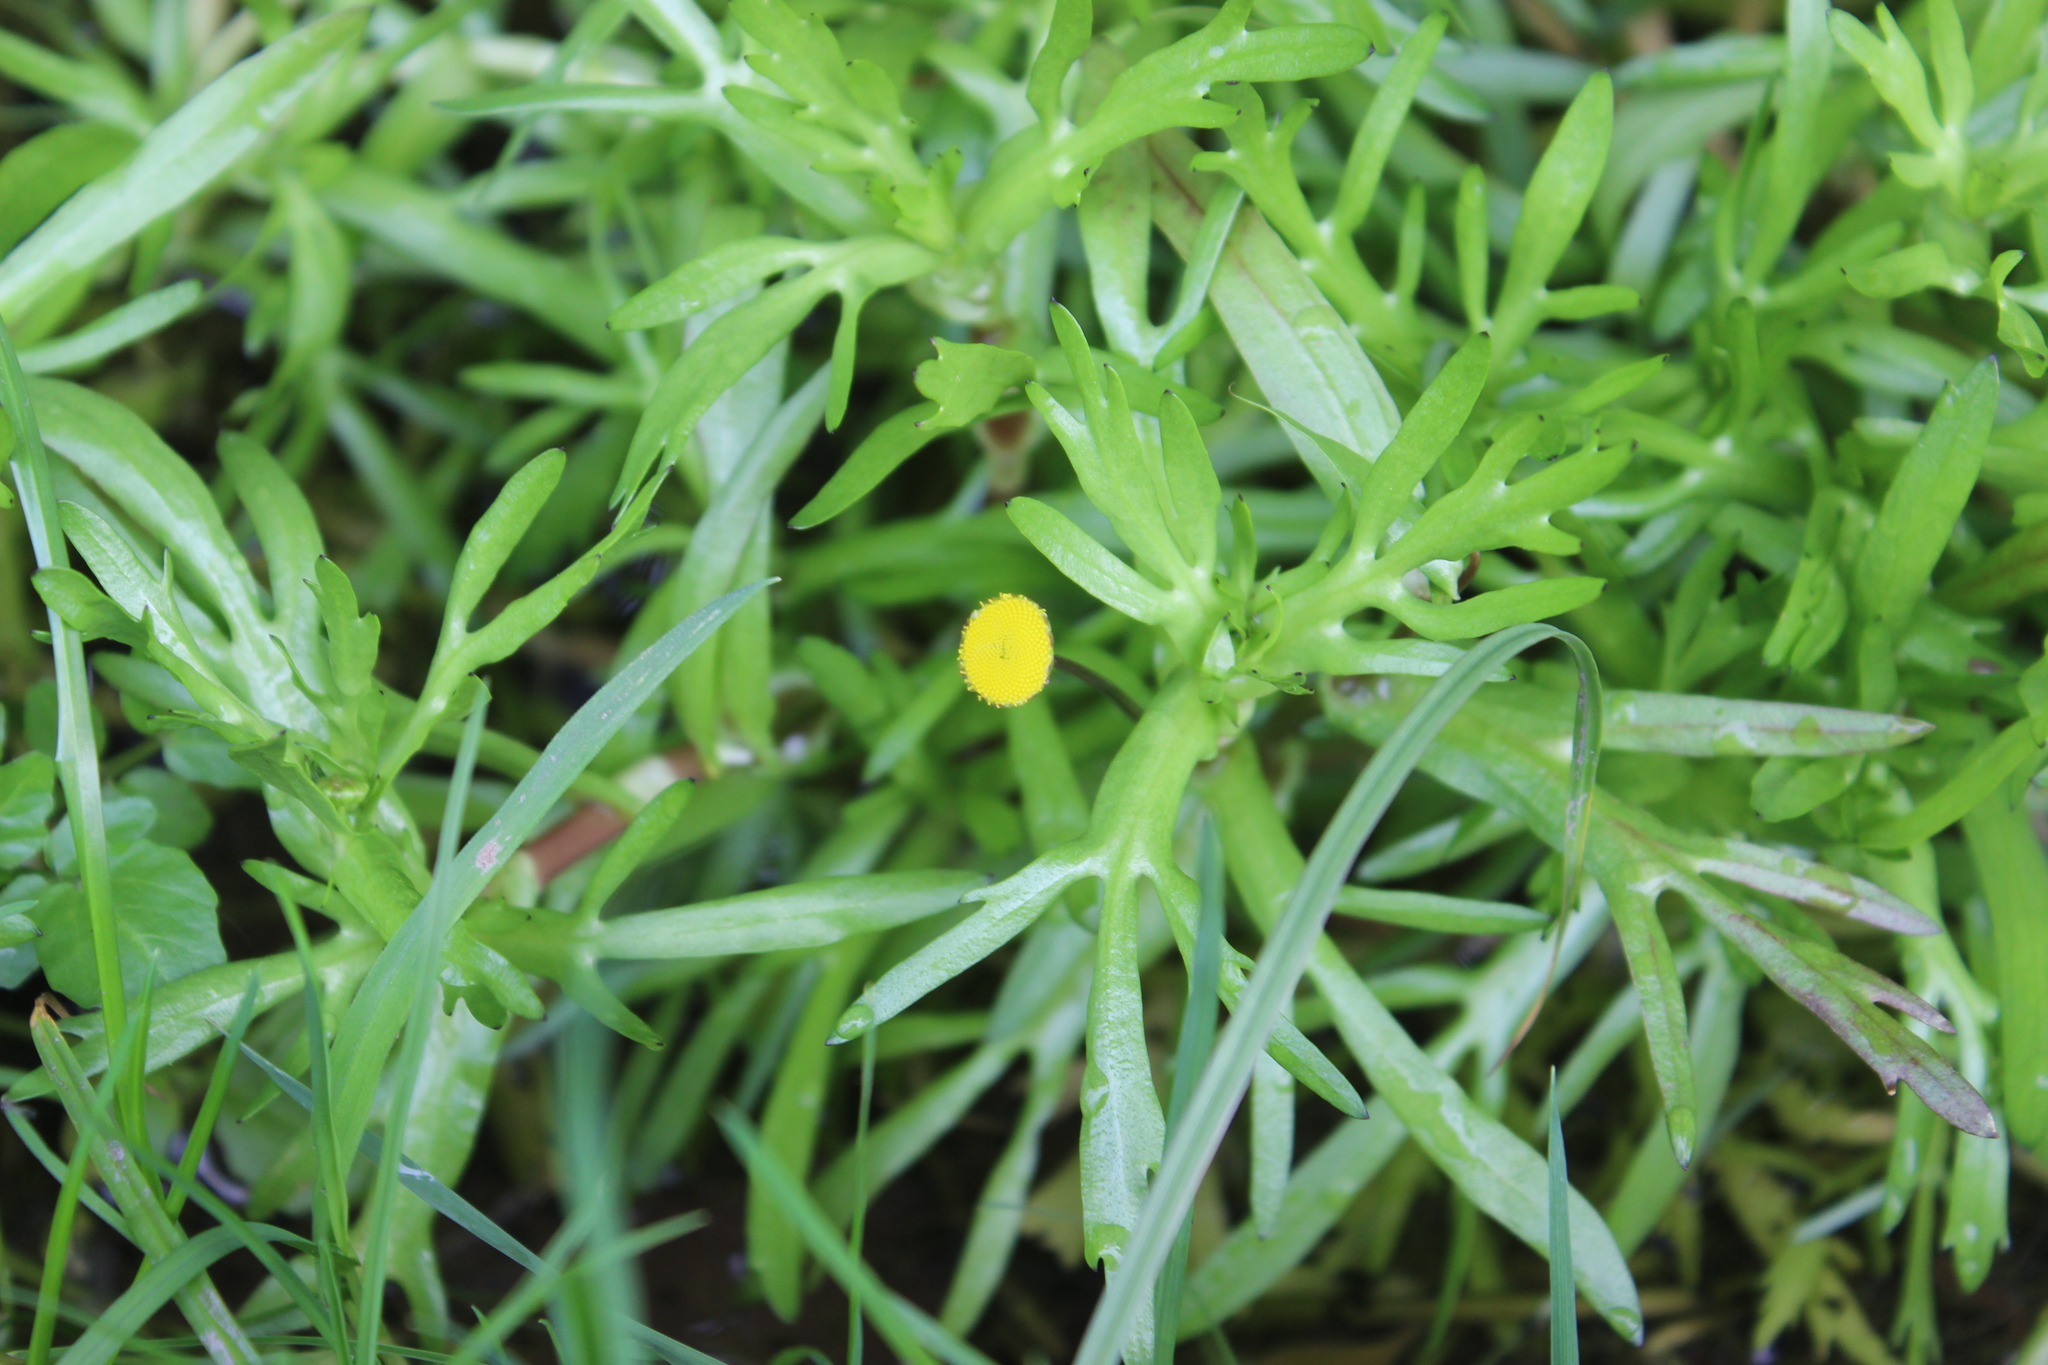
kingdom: Plantae
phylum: Tracheophyta
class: Magnoliopsida
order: Asterales
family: Asteraceae
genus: Cotula
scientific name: Cotula coronopifolia
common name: Buttonweed
